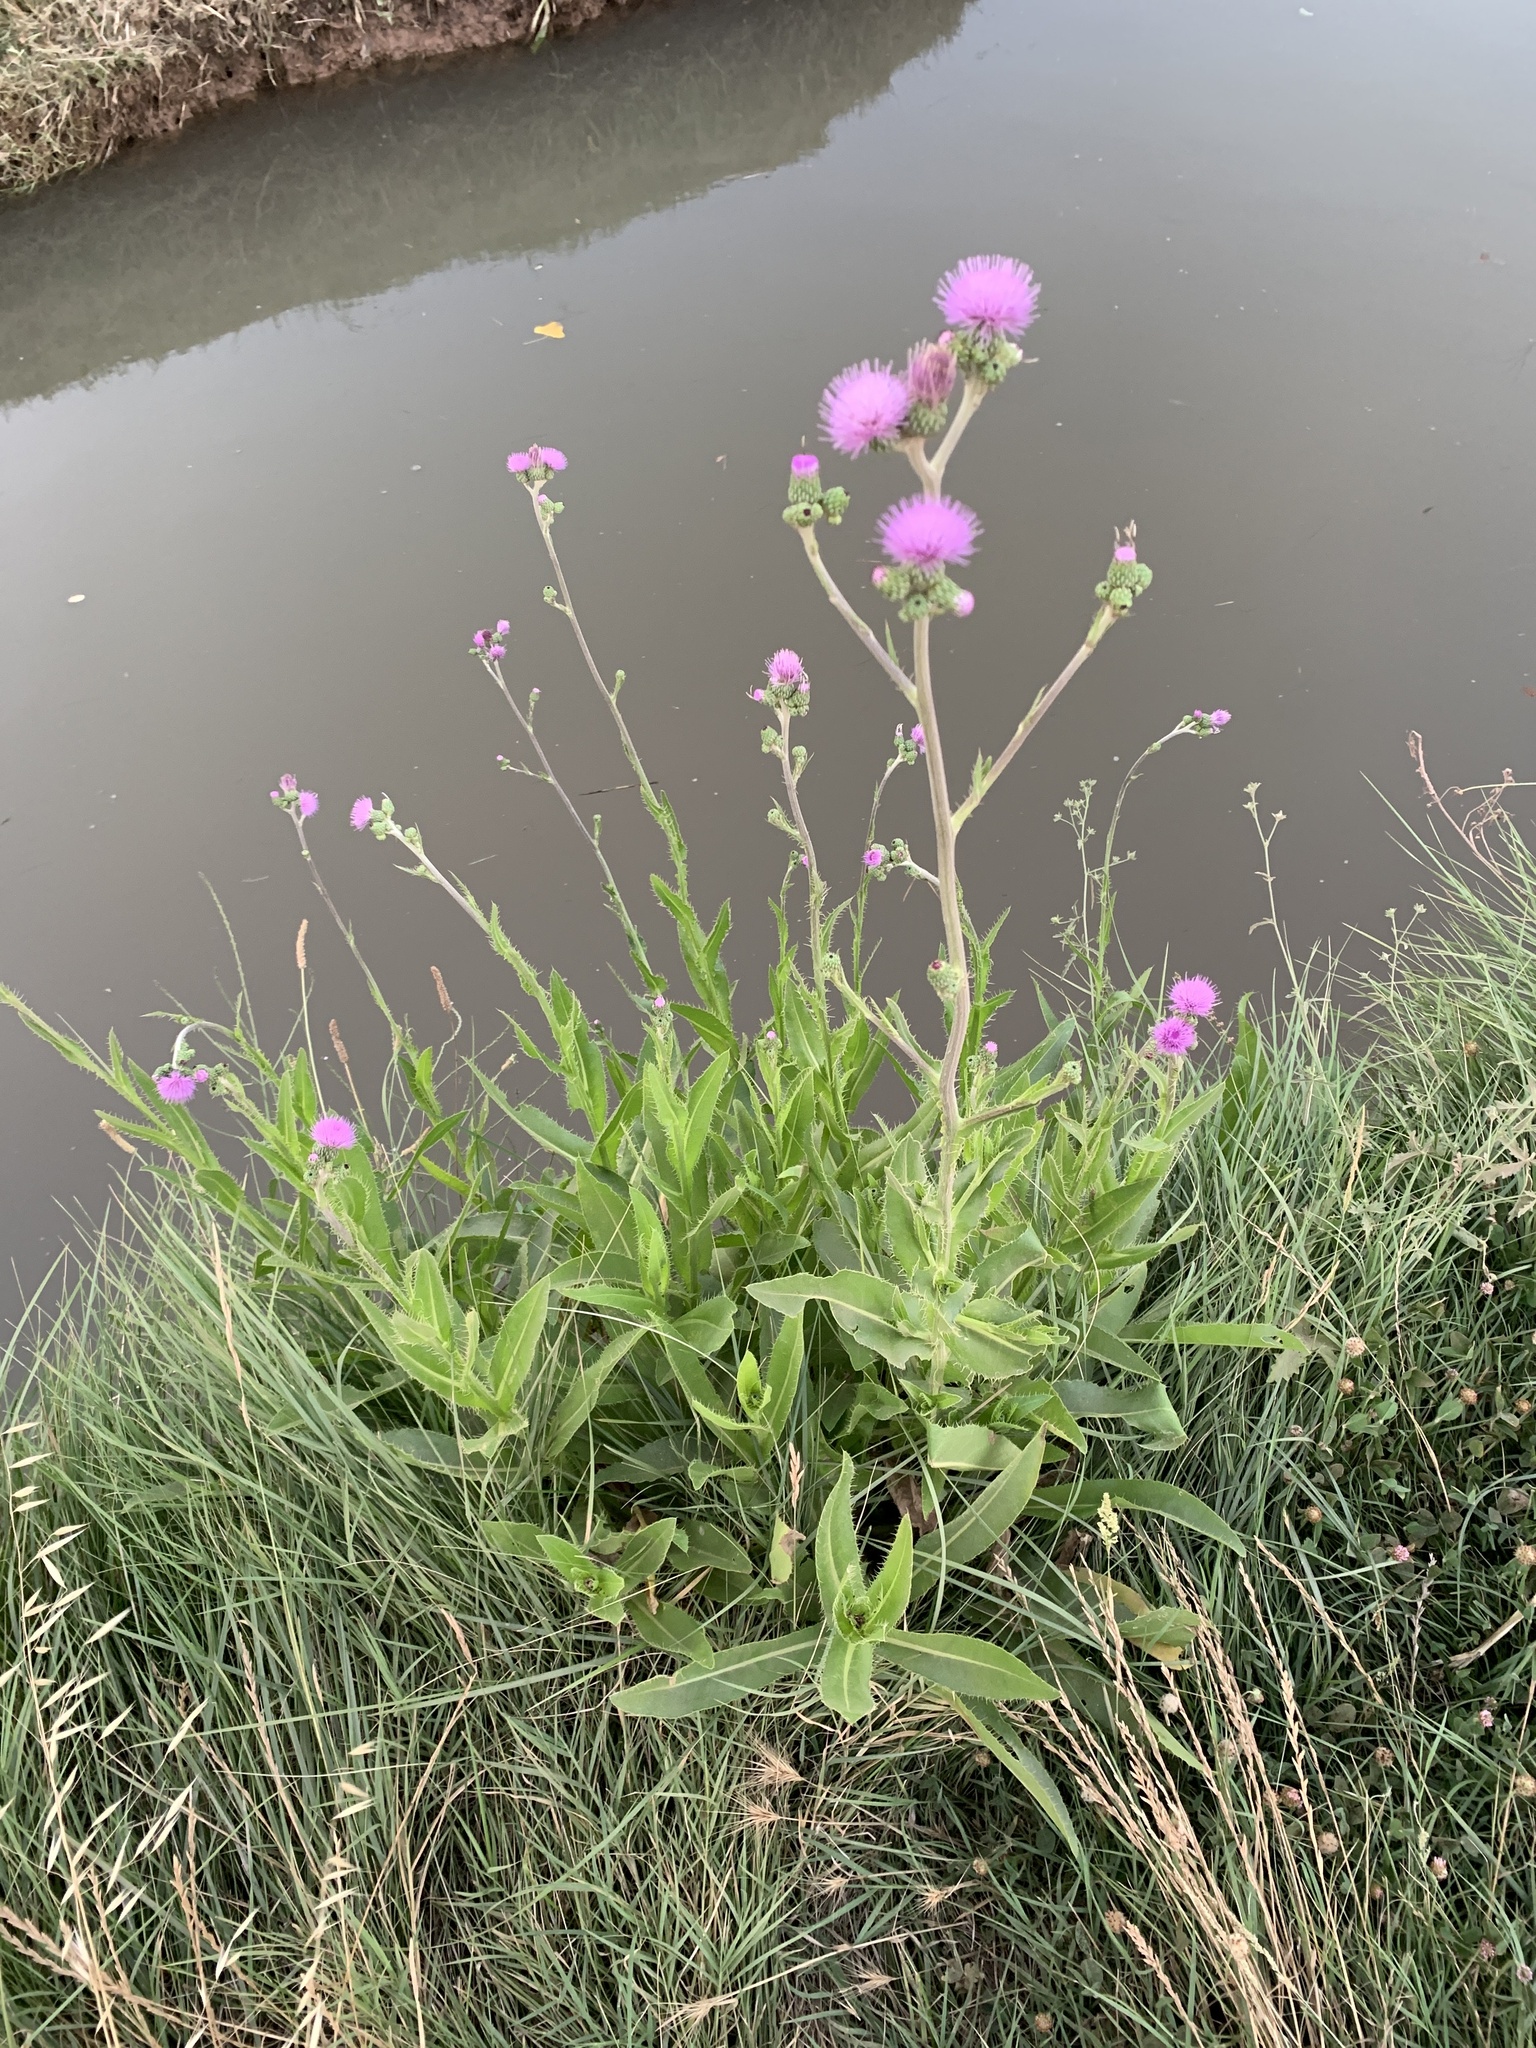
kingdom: Plantae
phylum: Tracheophyta
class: Magnoliopsida
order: Asterales
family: Asteraceae
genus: Cirsium
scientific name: Cirsium monspessulanum
